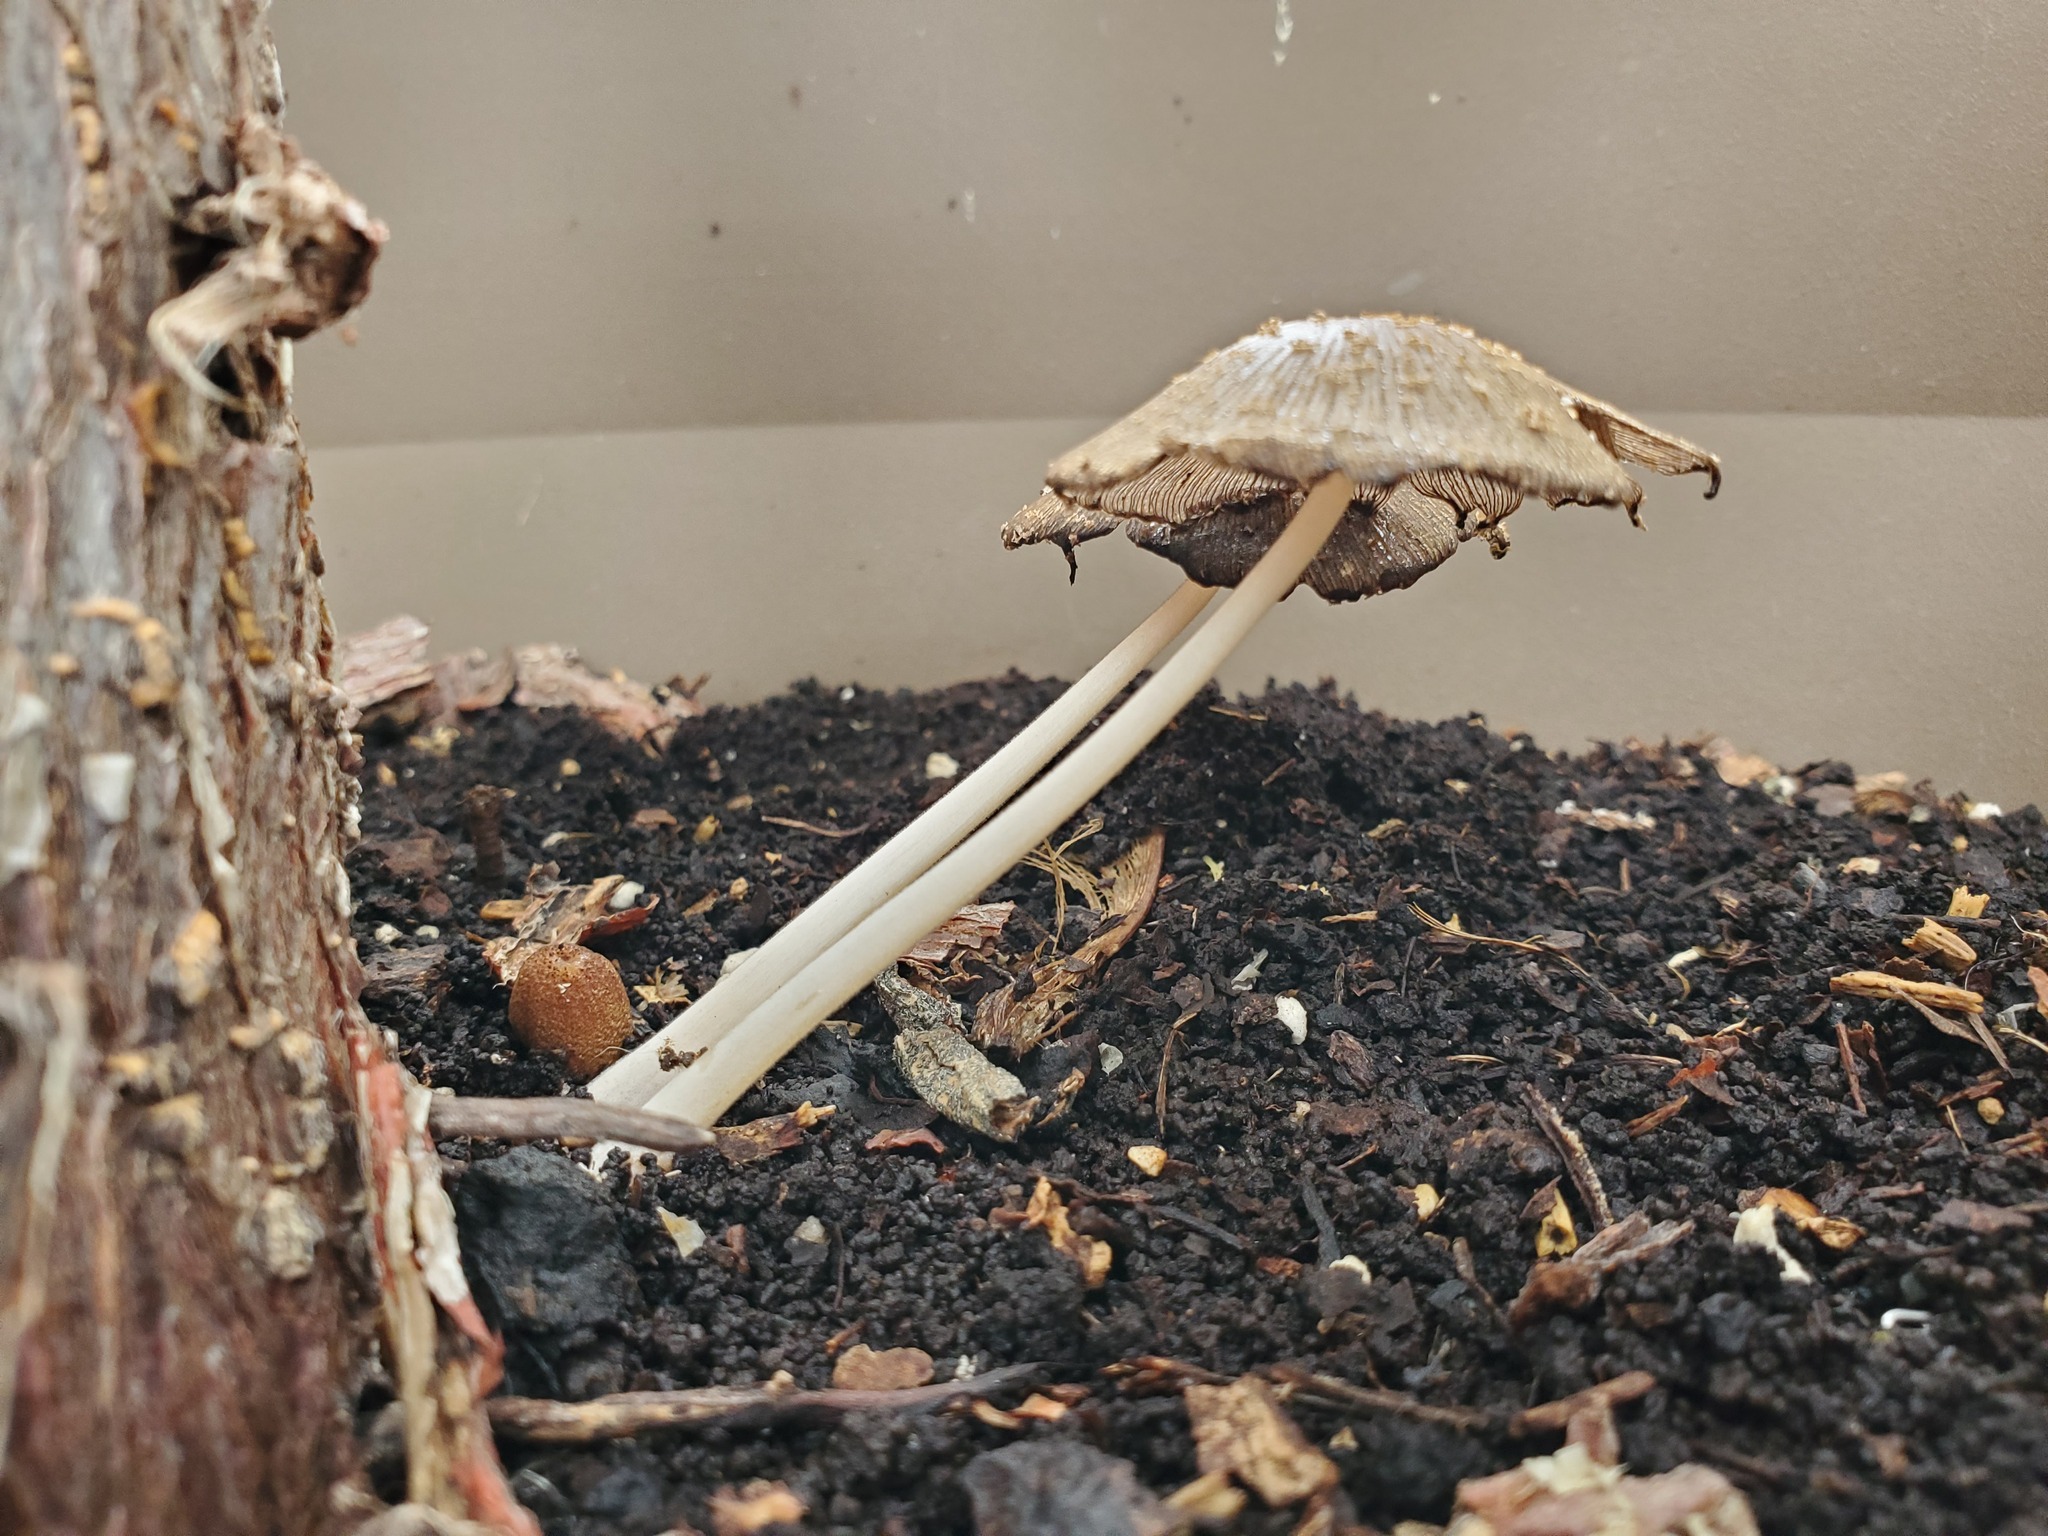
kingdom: Fungi
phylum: Basidiomycota
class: Agaricomycetes
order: Agaricales
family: Psathyrellaceae
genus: Coprinellus
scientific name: Coprinellus radians
